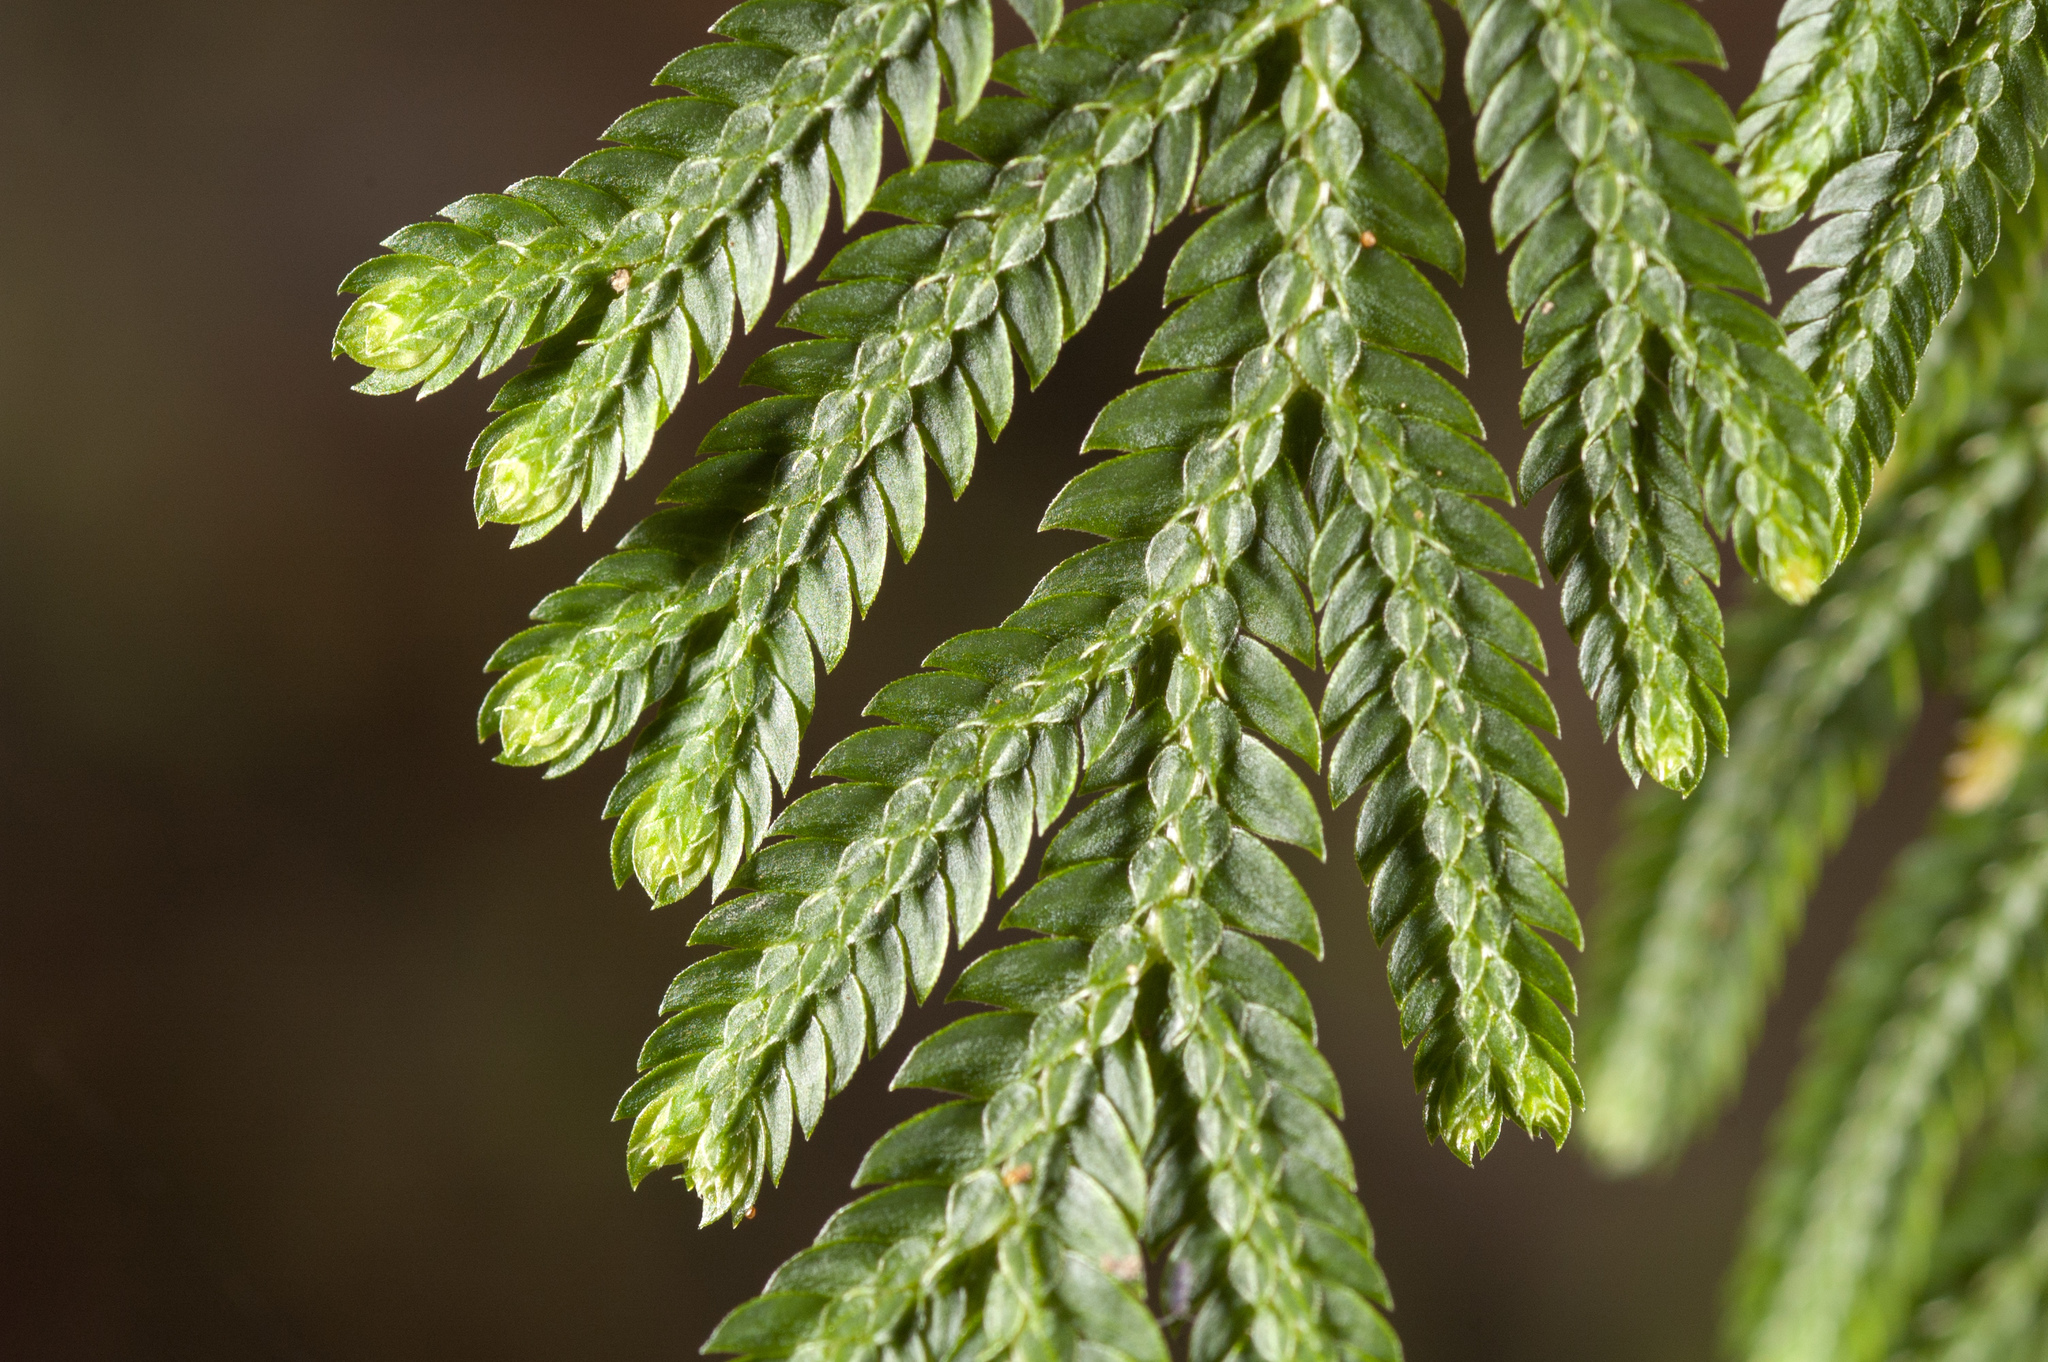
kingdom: Plantae
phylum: Tracheophyta
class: Lycopodiopsida
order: Selaginellales
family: Selaginellaceae
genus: Selaginella
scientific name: Selaginella moellendorffii
